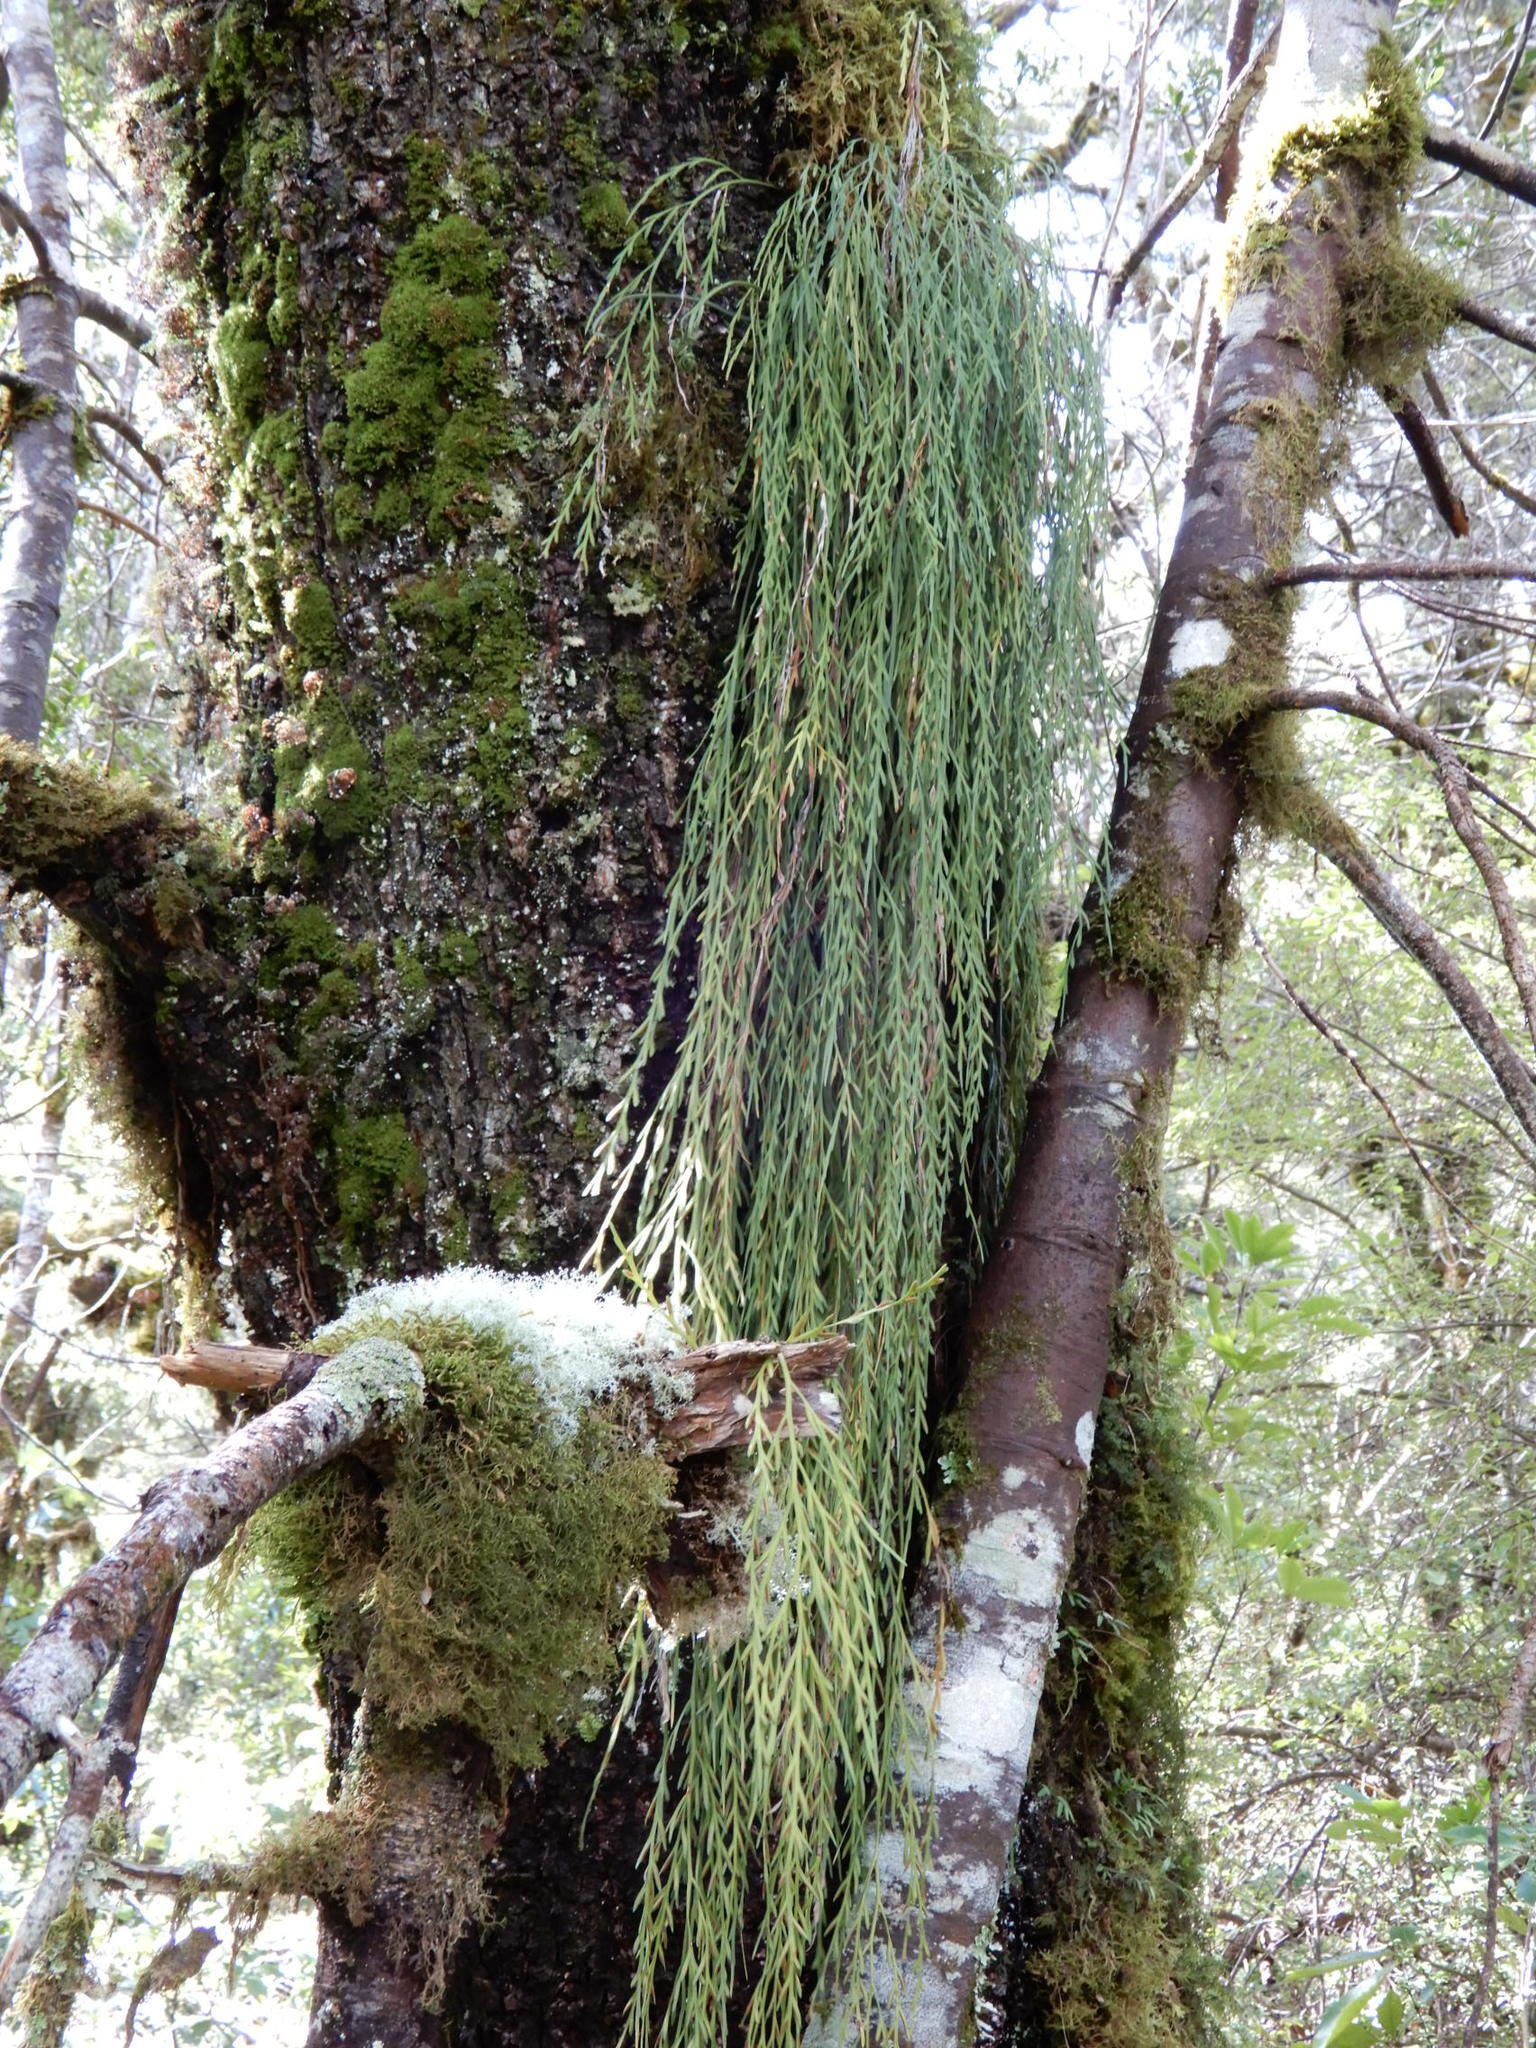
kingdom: Plantae
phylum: Tracheophyta
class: Polypodiopsida
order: Polypodiales
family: Aspleniaceae
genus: Asplenium
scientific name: Asplenium flaccidum
